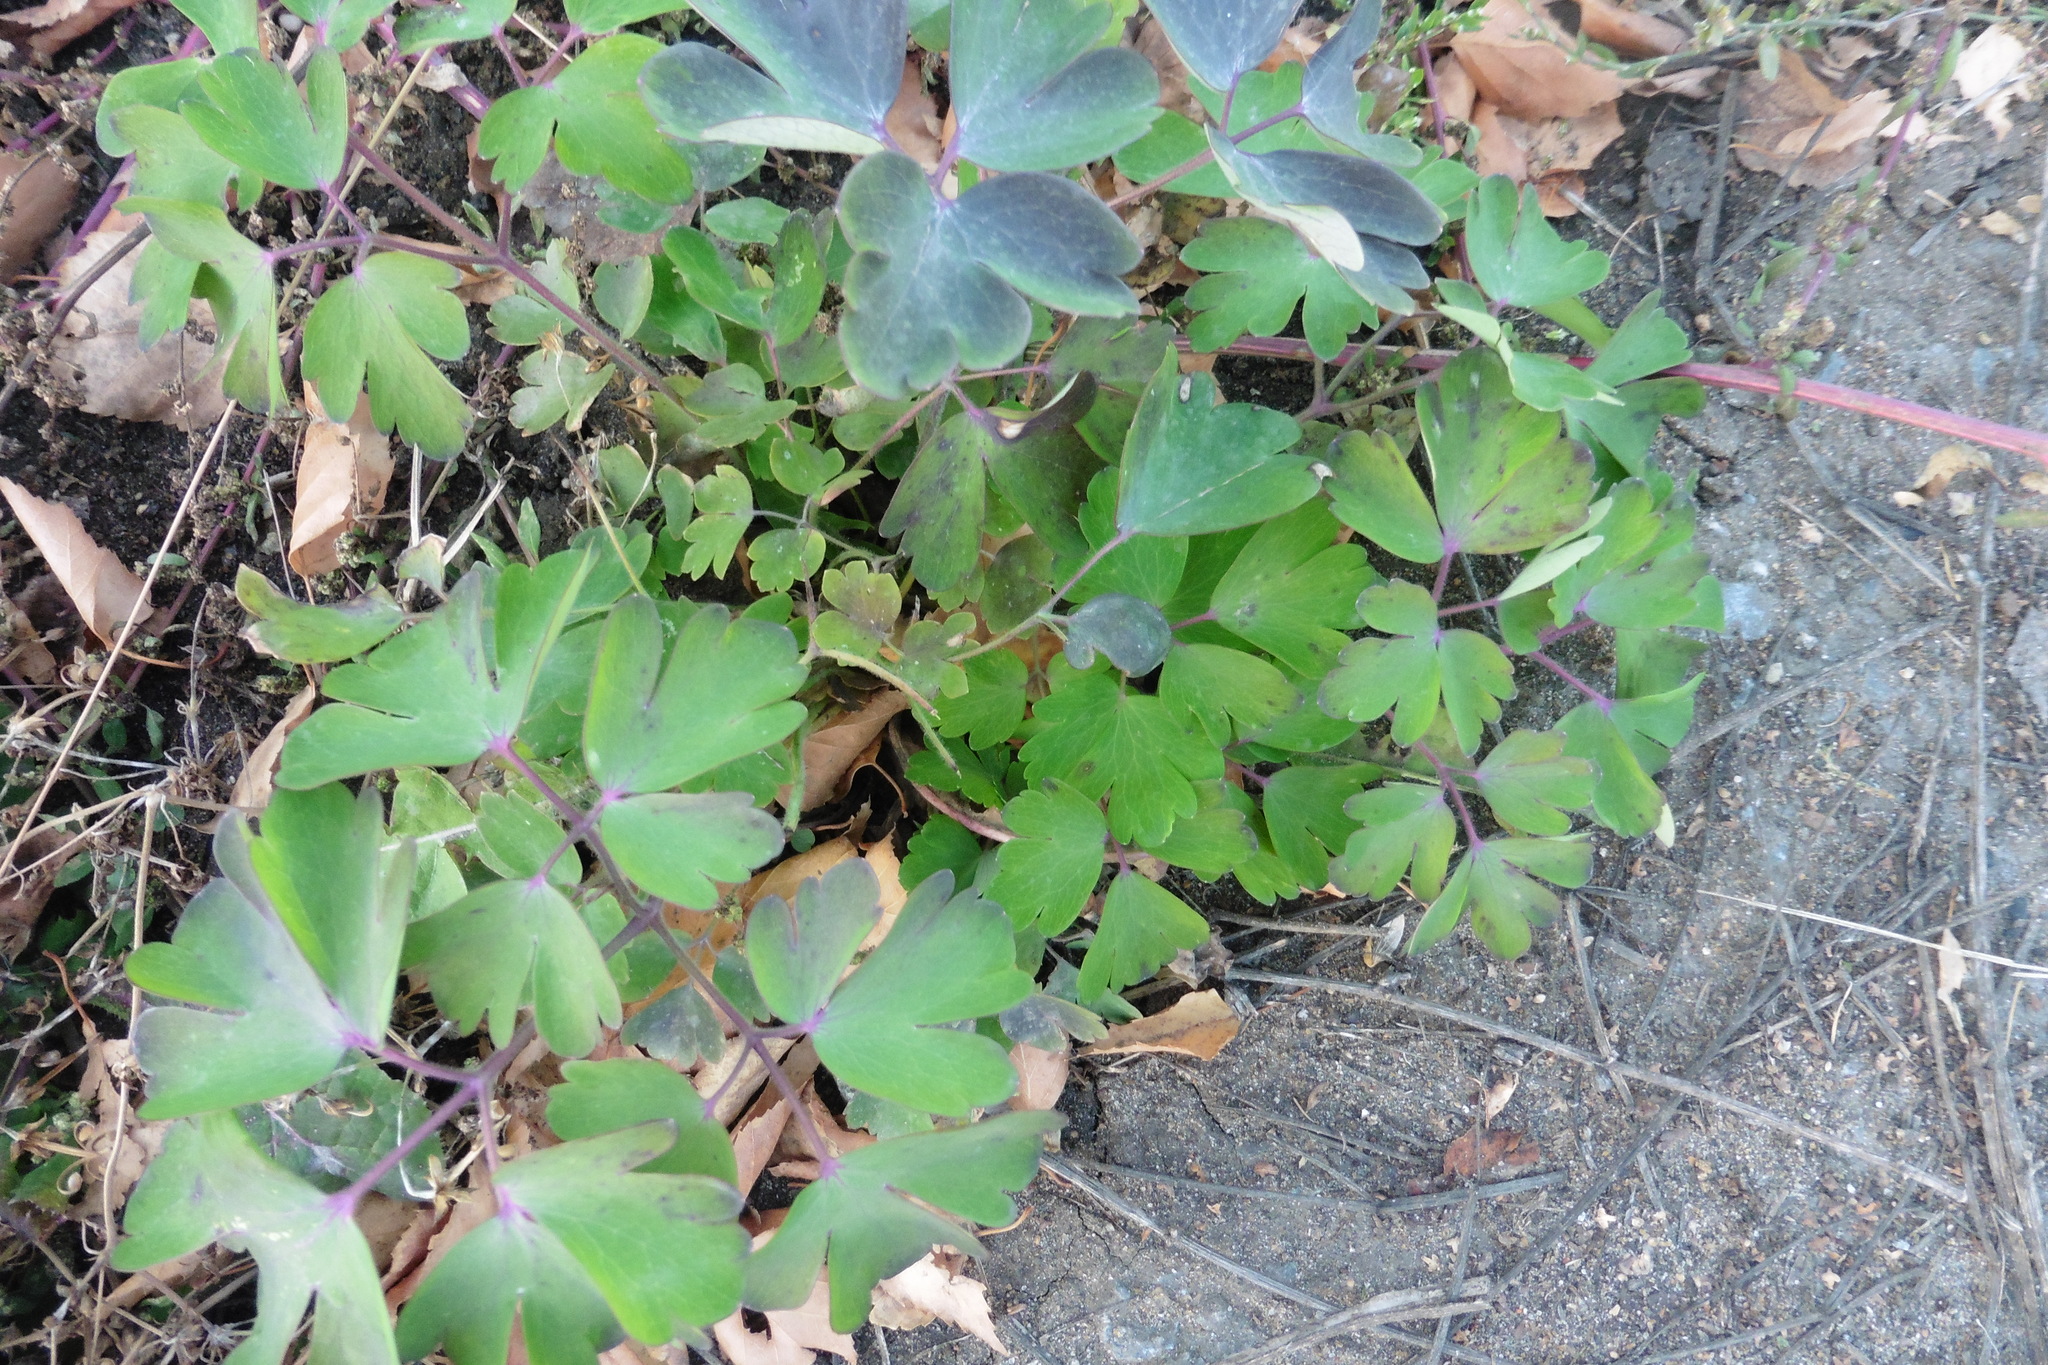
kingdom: Plantae
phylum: Tracheophyta
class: Magnoliopsida
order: Ranunculales
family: Ranunculaceae
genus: Aquilegia
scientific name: Aquilegia vulgaris
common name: Columbine
